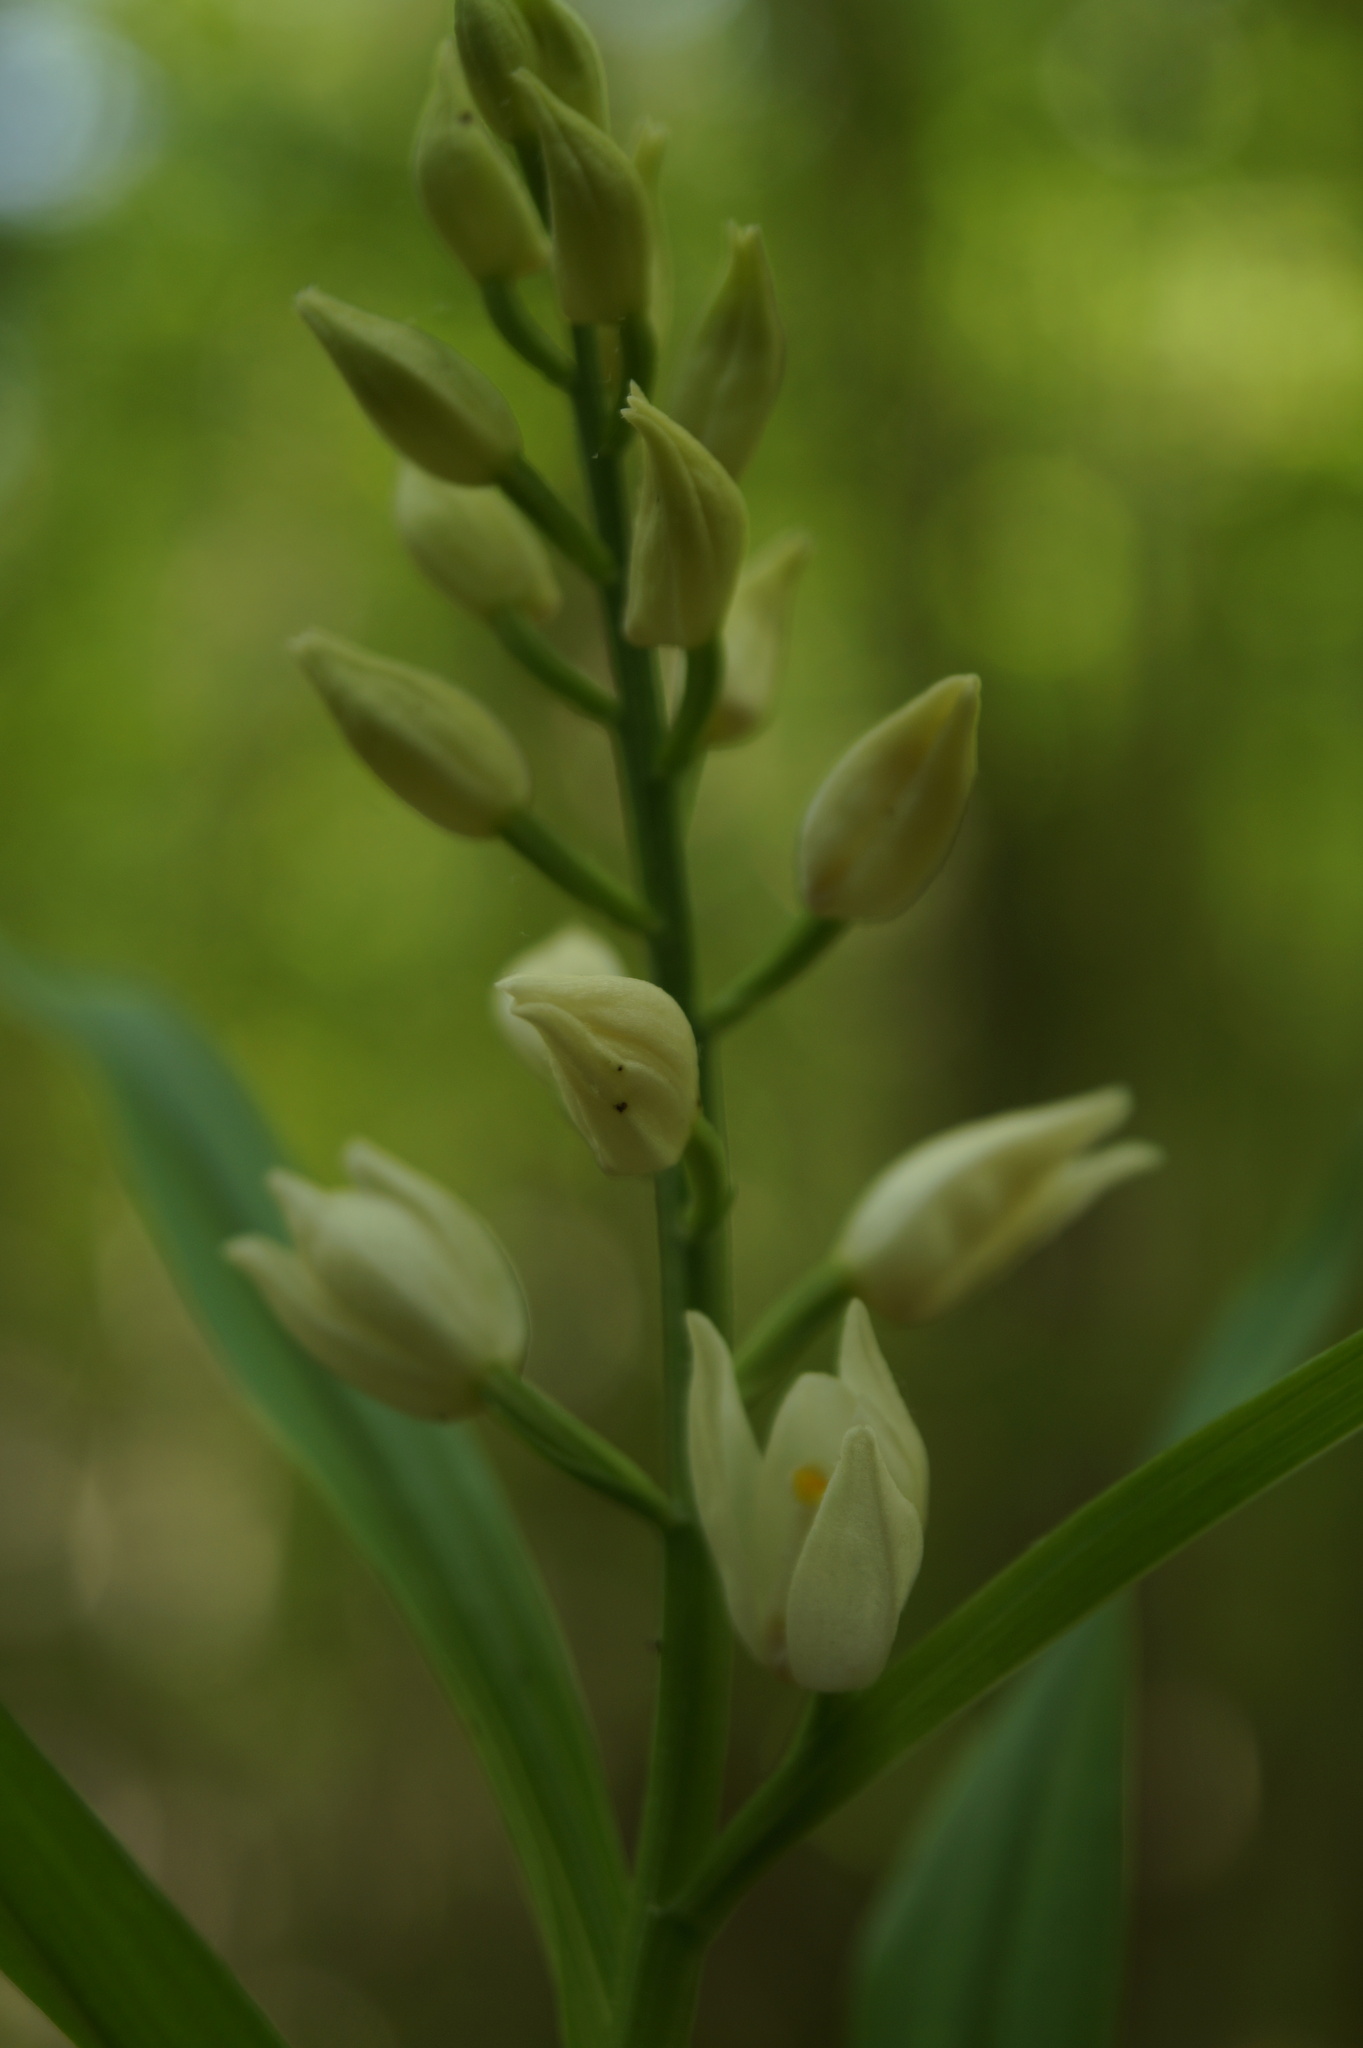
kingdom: Plantae
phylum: Tracheophyta
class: Liliopsida
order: Asparagales
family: Orchidaceae
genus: Cephalanthera
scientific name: Cephalanthera longifolia
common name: Narrow-leaved helleborine
